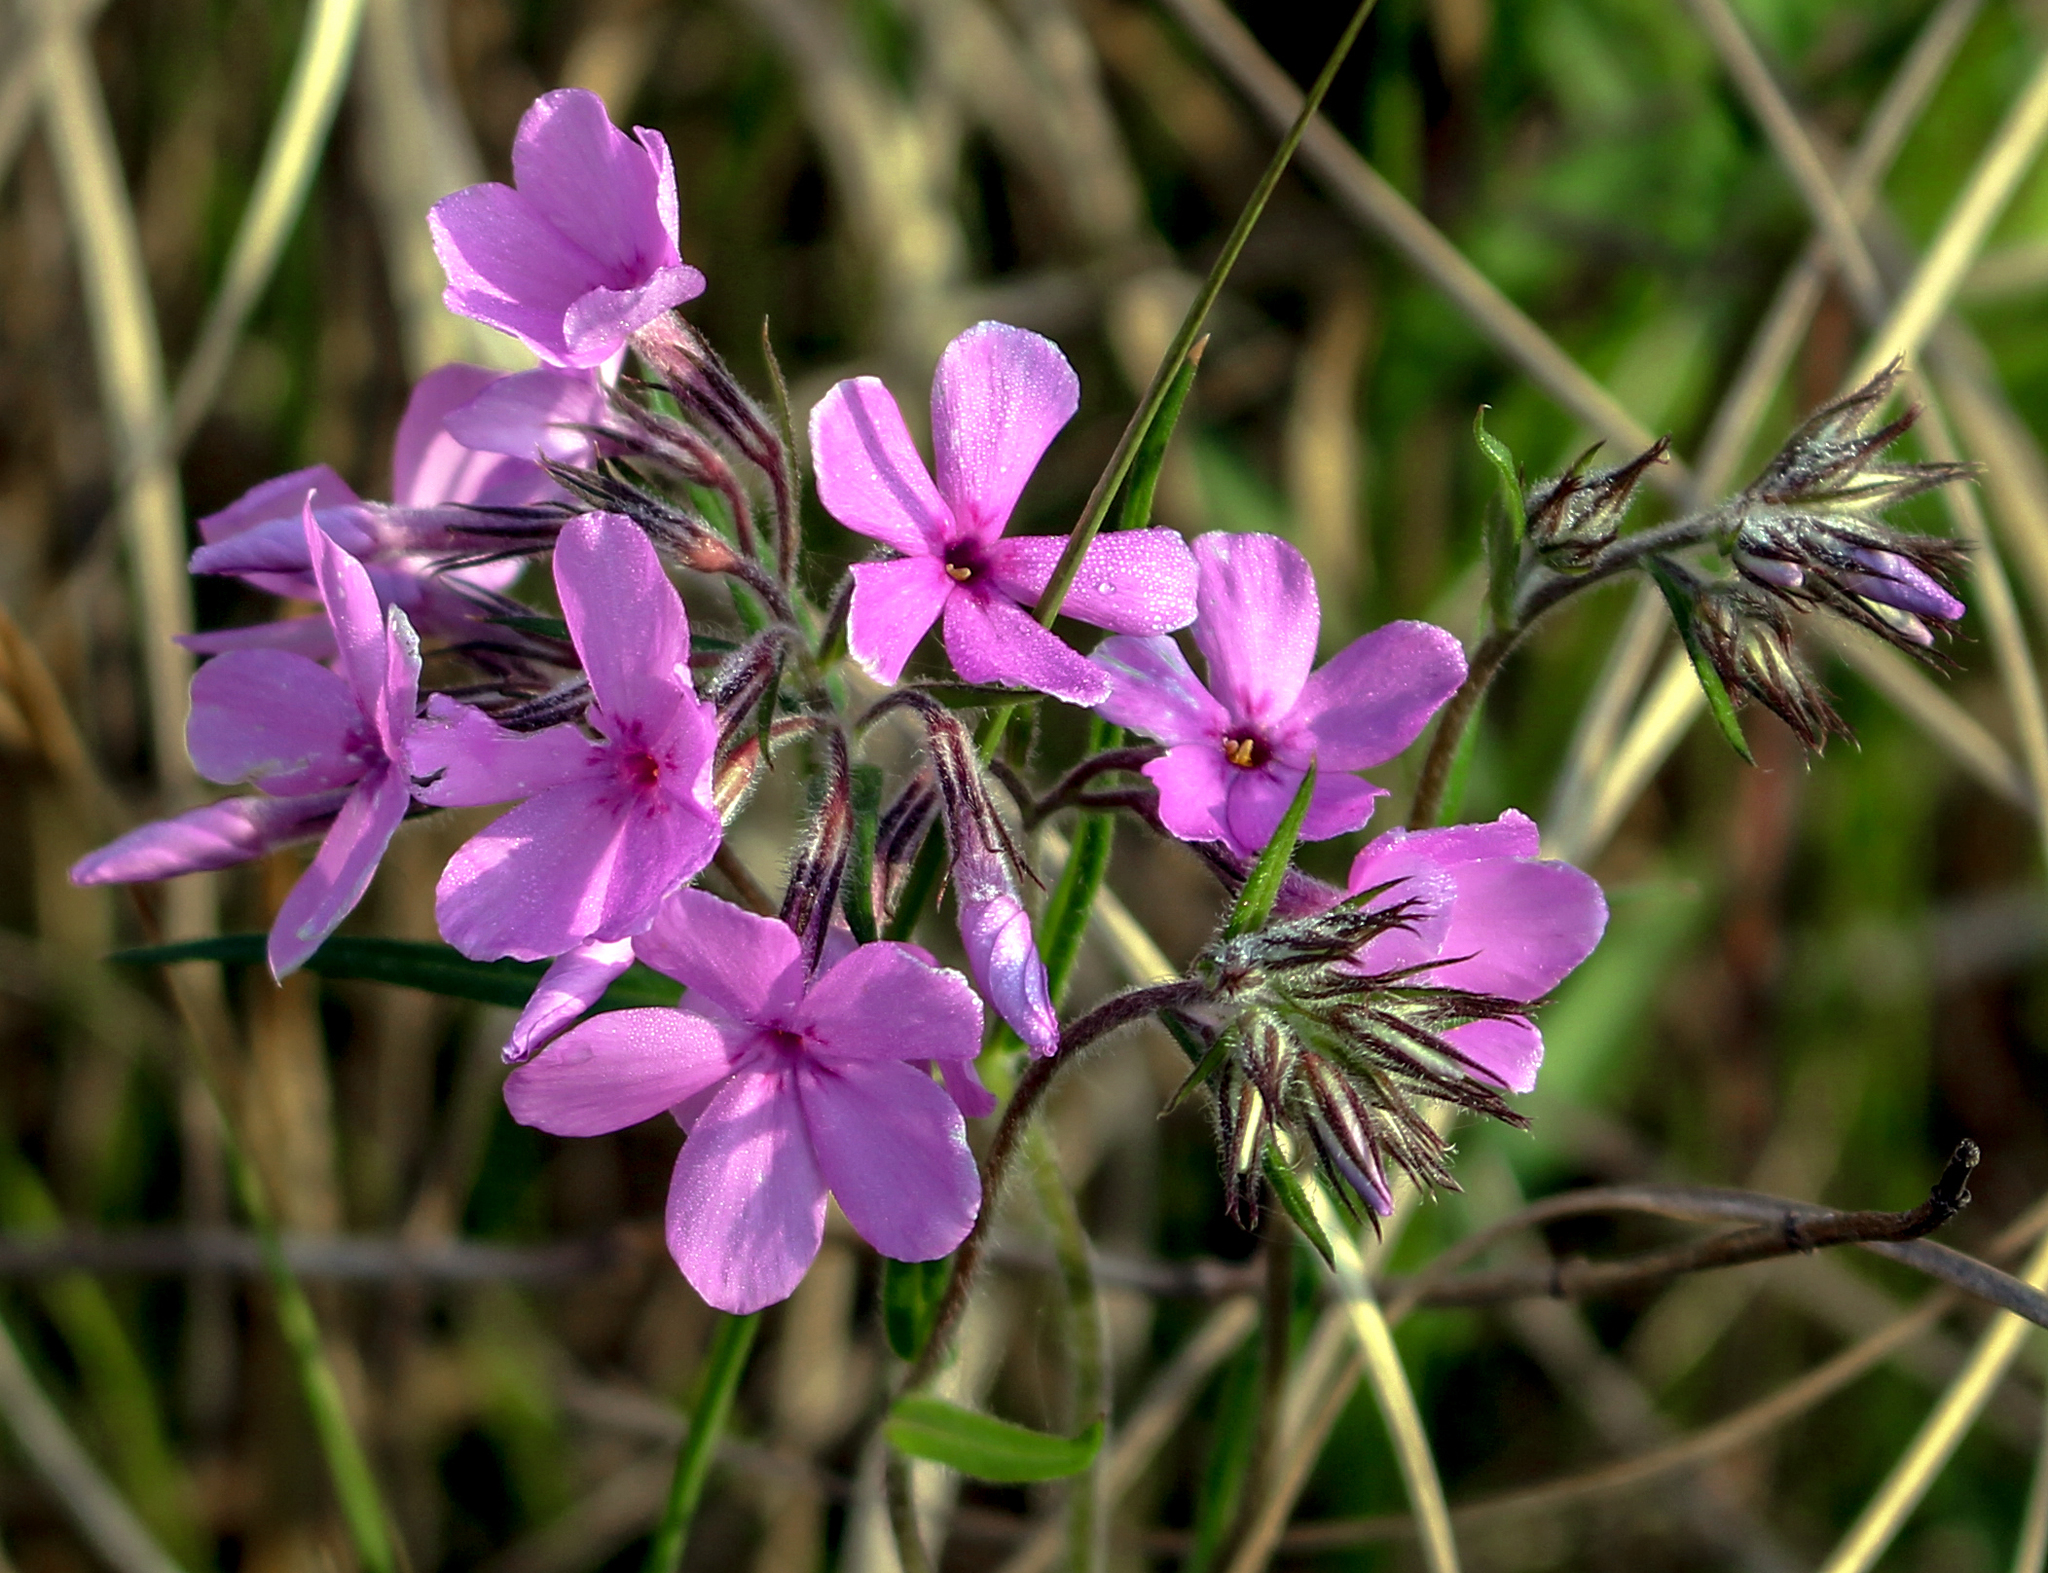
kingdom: Plantae
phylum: Tracheophyta
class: Magnoliopsida
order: Ericales
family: Polemoniaceae
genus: Phlox
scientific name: Phlox pilosa
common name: Prairie phlox
